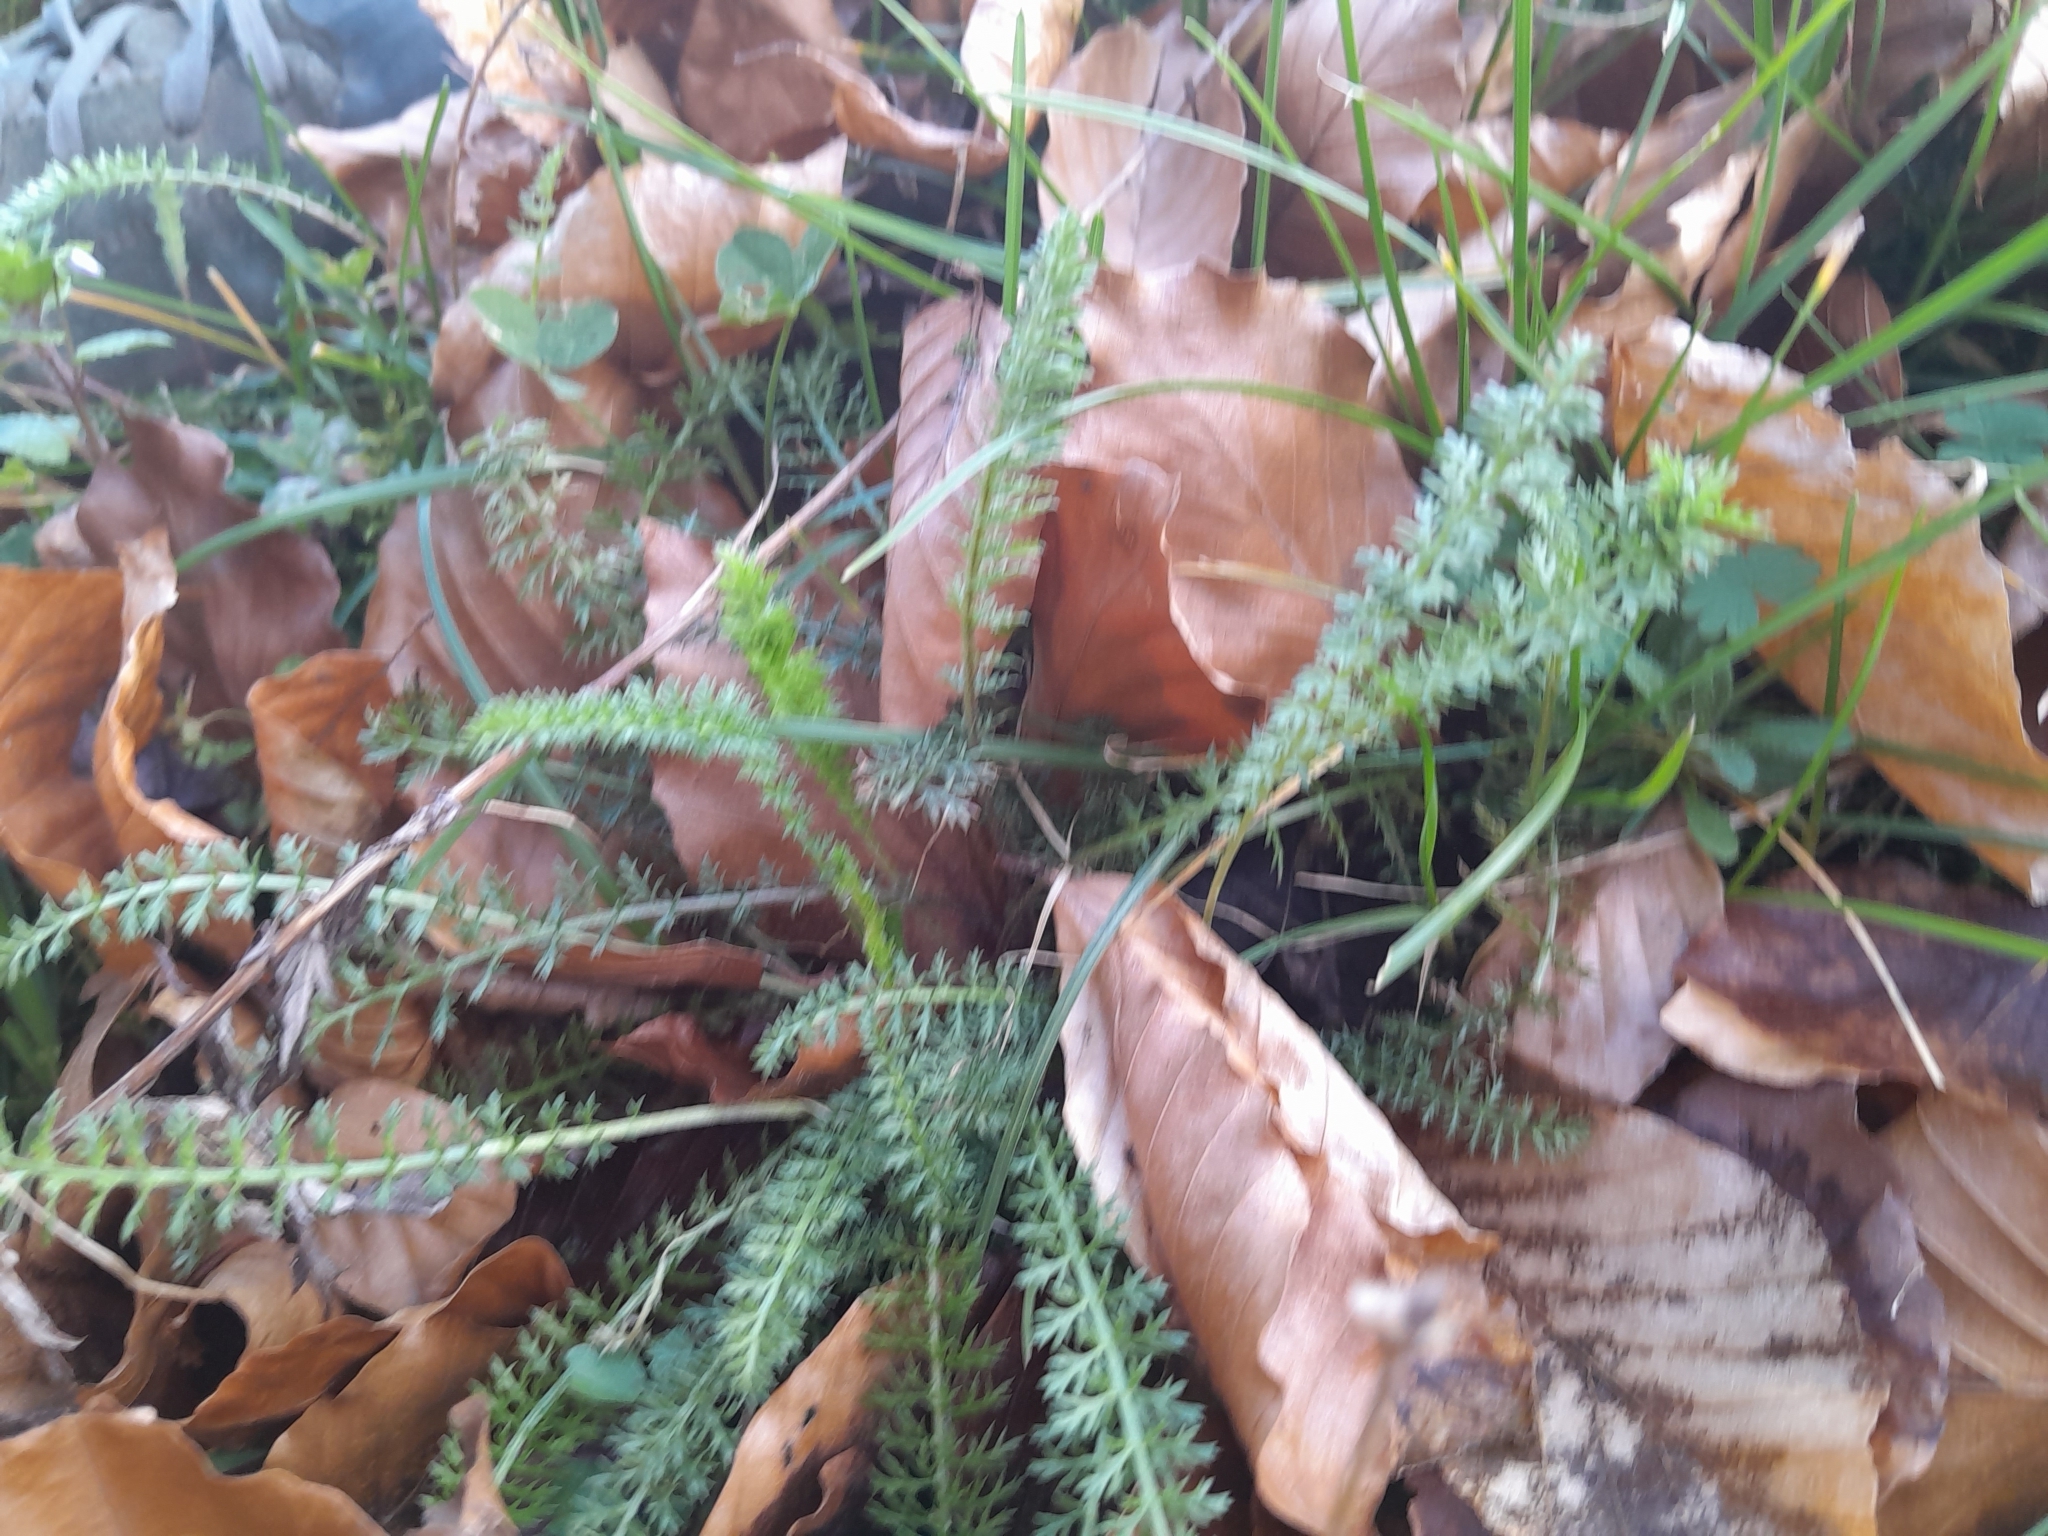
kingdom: Plantae
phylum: Tracheophyta
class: Magnoliopsida
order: Asterales
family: Asteraceae
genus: Achillea
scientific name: Achillea millefolium
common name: Yarrow
